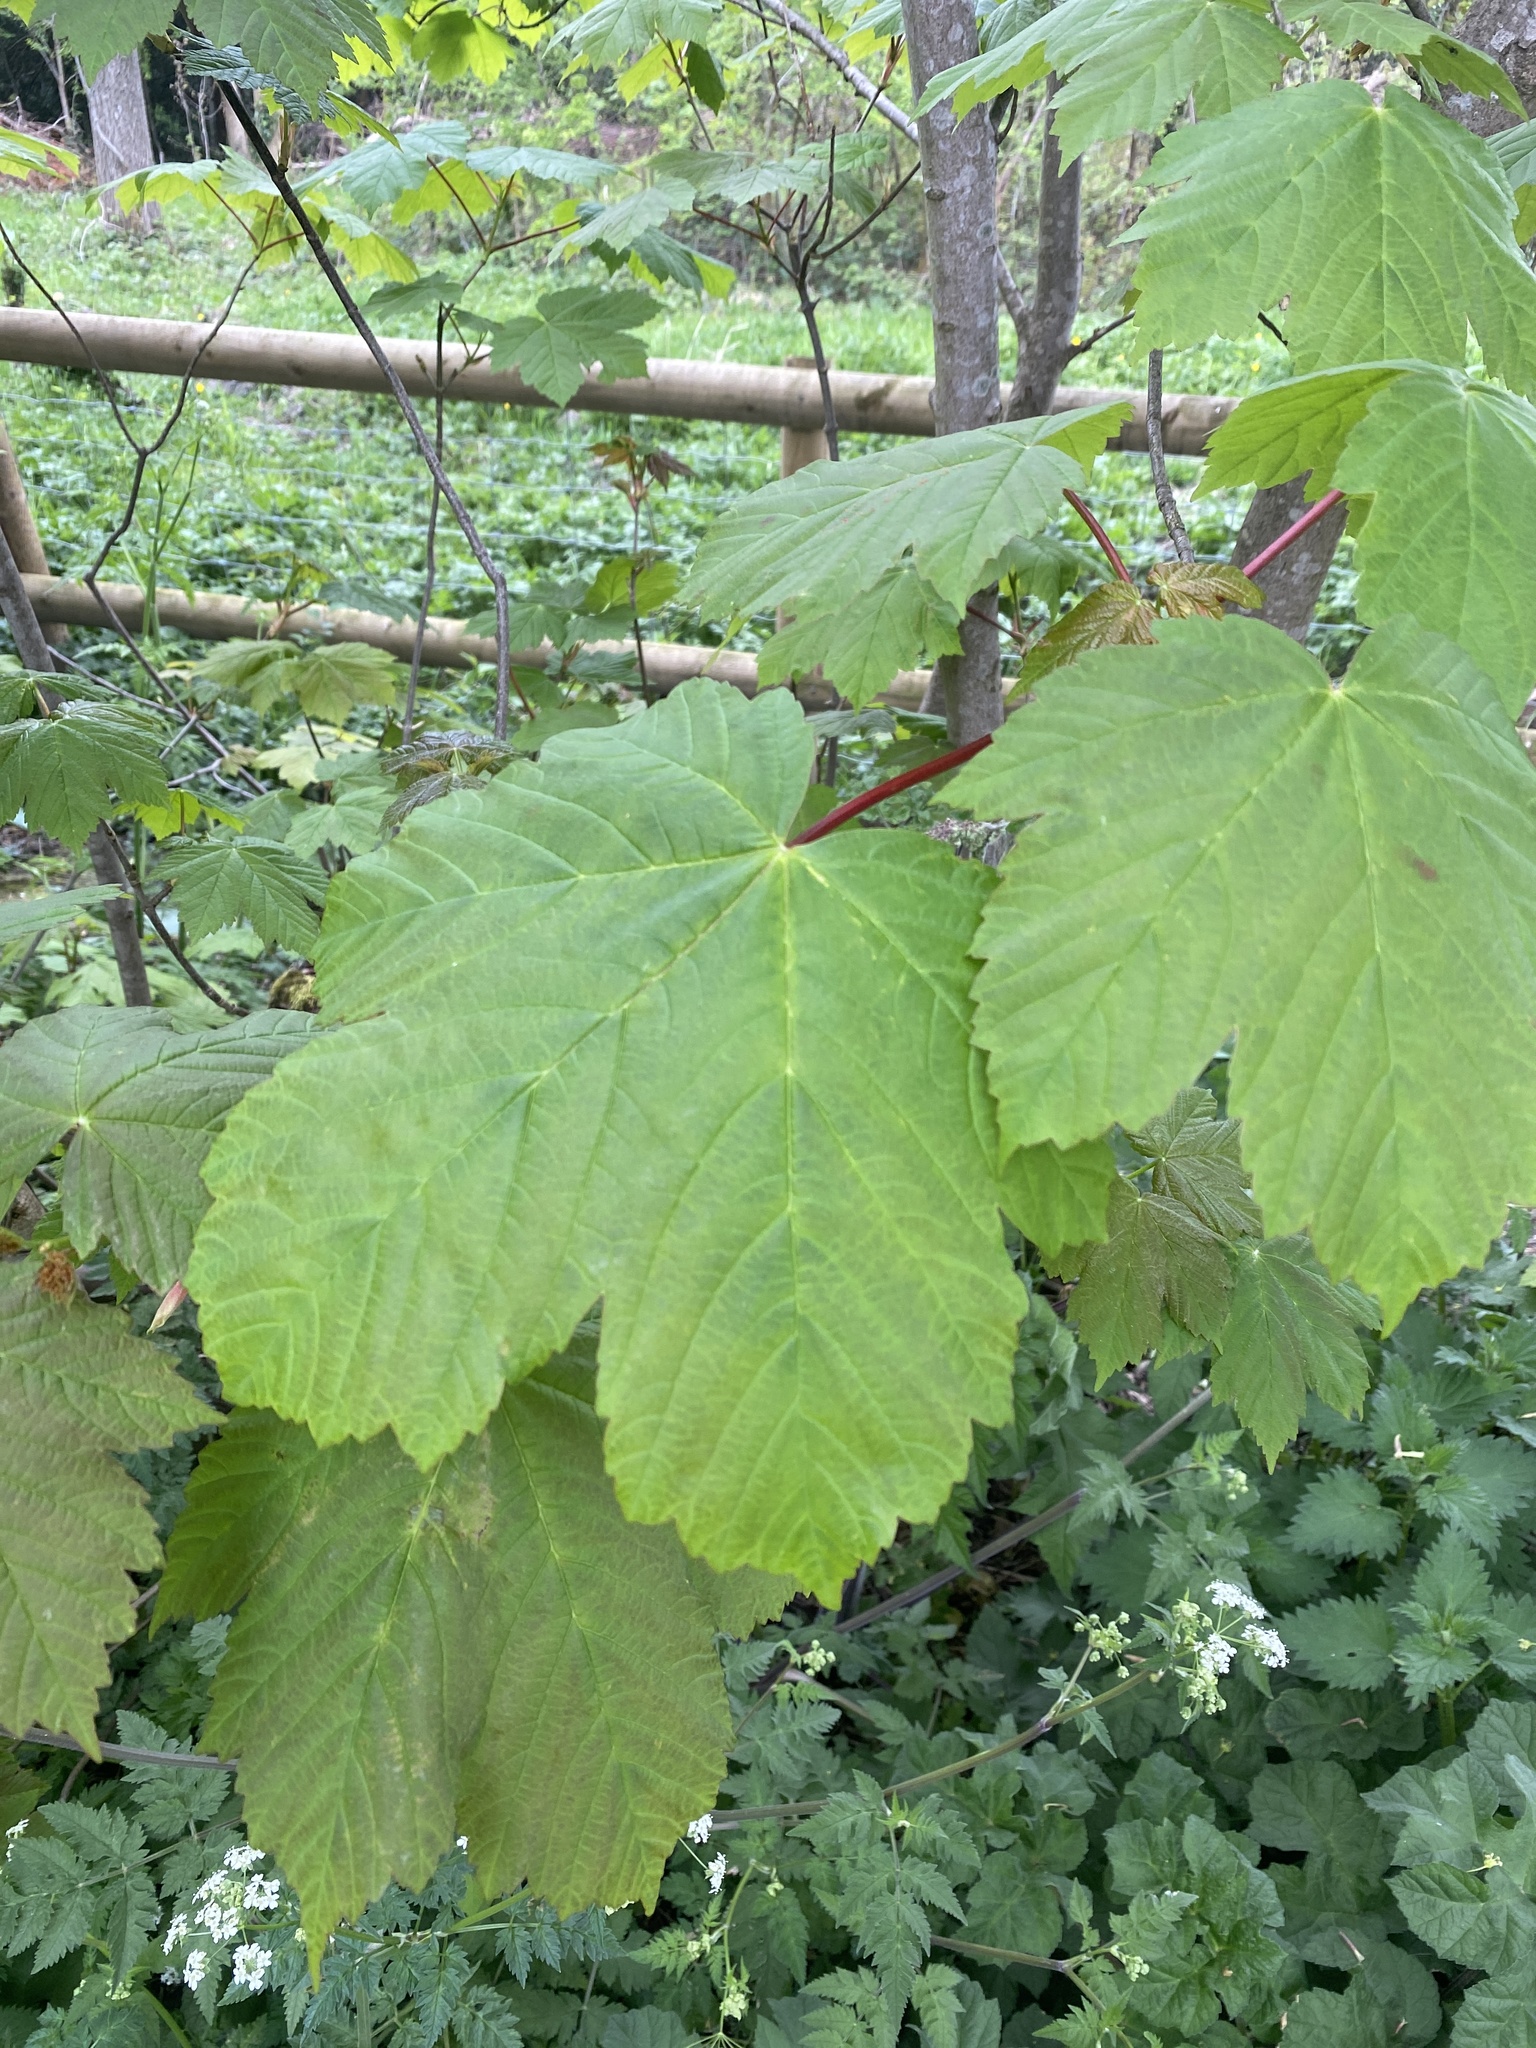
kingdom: Plantae
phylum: Tracheophyta
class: Magnoliopsida
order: Sapindales
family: Sapindaceae
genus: Acer
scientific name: Acer pseudoplatanus
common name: Sycamore
